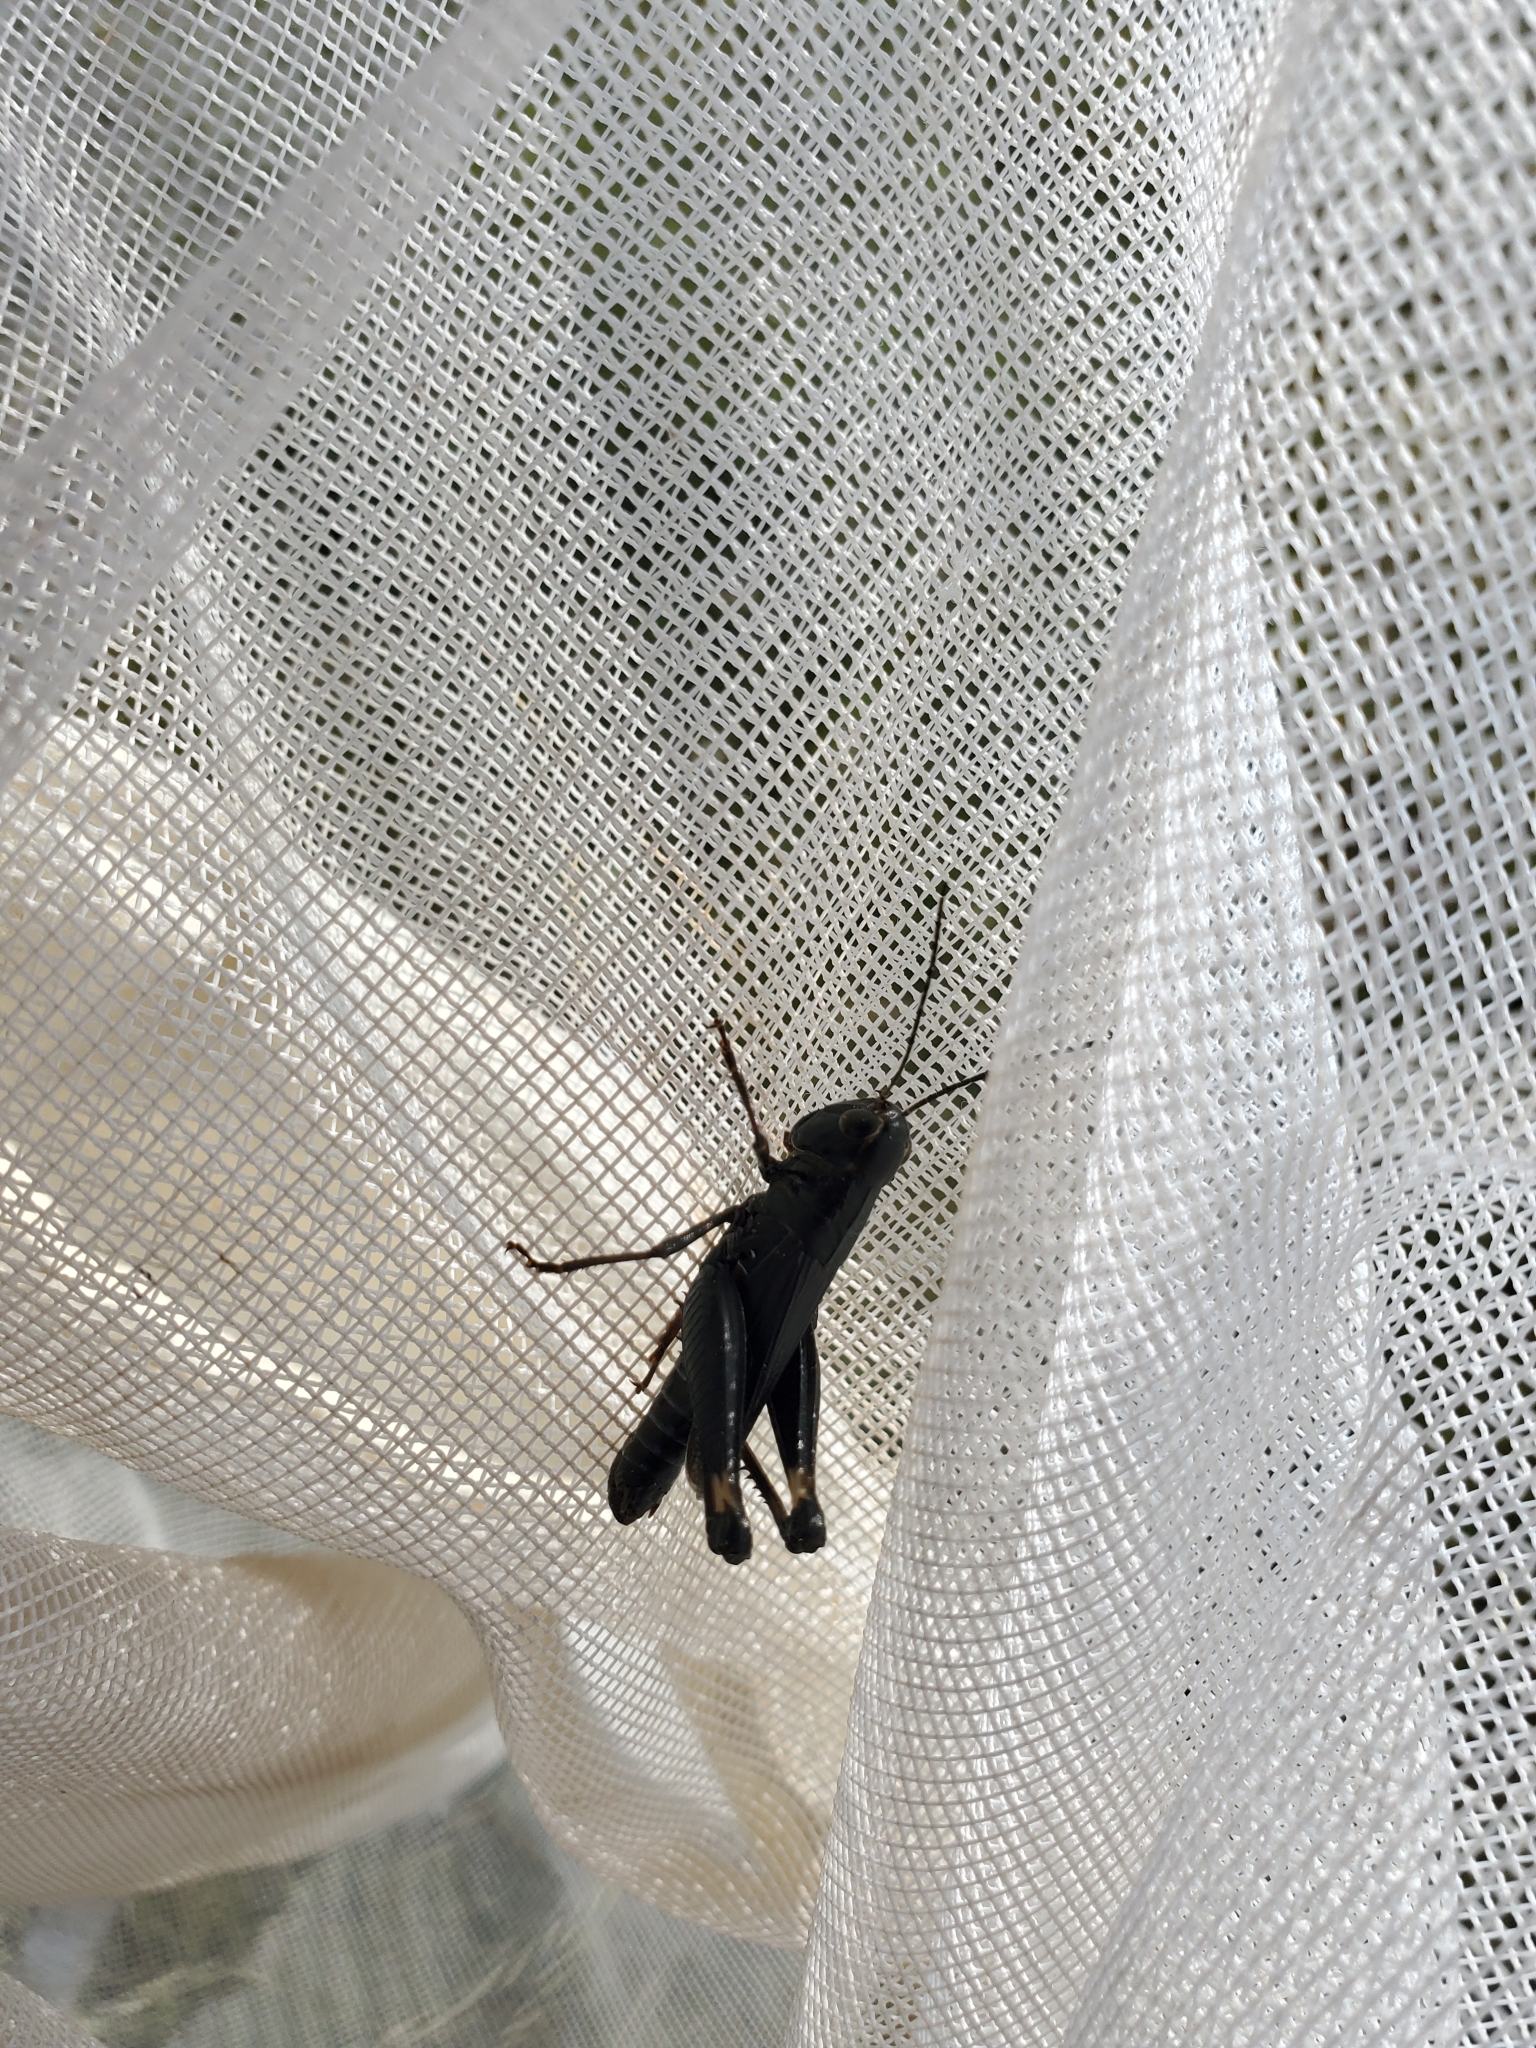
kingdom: Animalia
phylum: Arthropoda
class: Insecta
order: Orthoptera
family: Acrididae
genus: Boopedon
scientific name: Boopedon nubilum
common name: Ebony grasshopper
